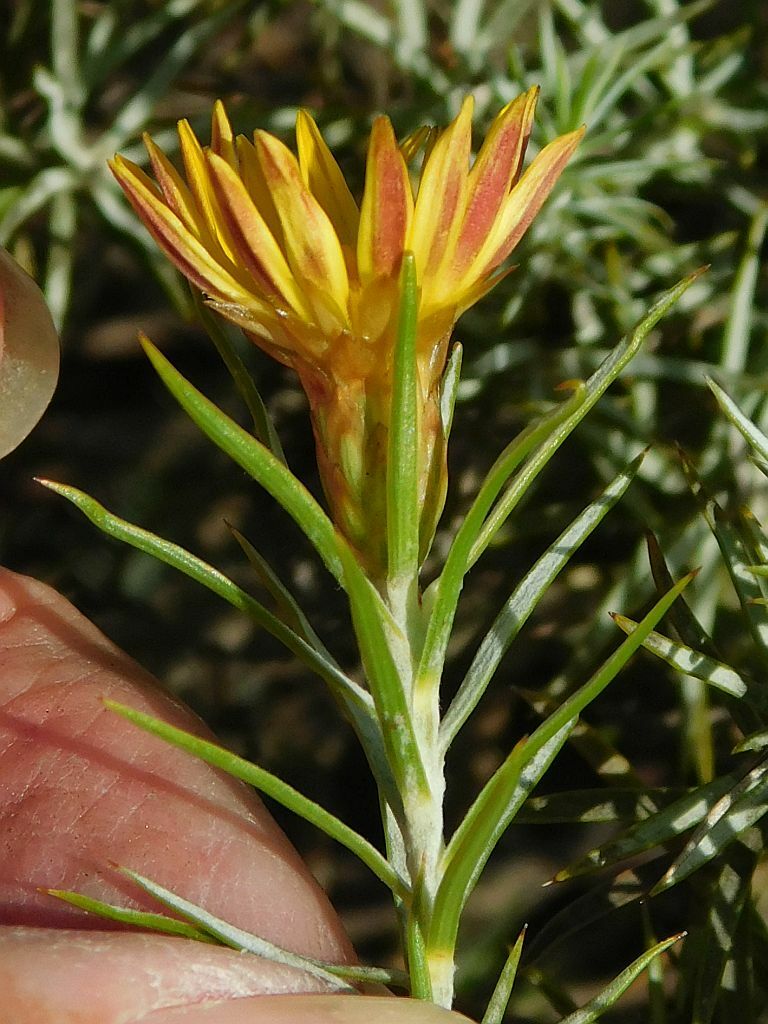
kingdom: Plantae
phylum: Tracheophyta
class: Magnoliopsida
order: Asterales
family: Asteraceae
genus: Oedera
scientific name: Oedera pungens
